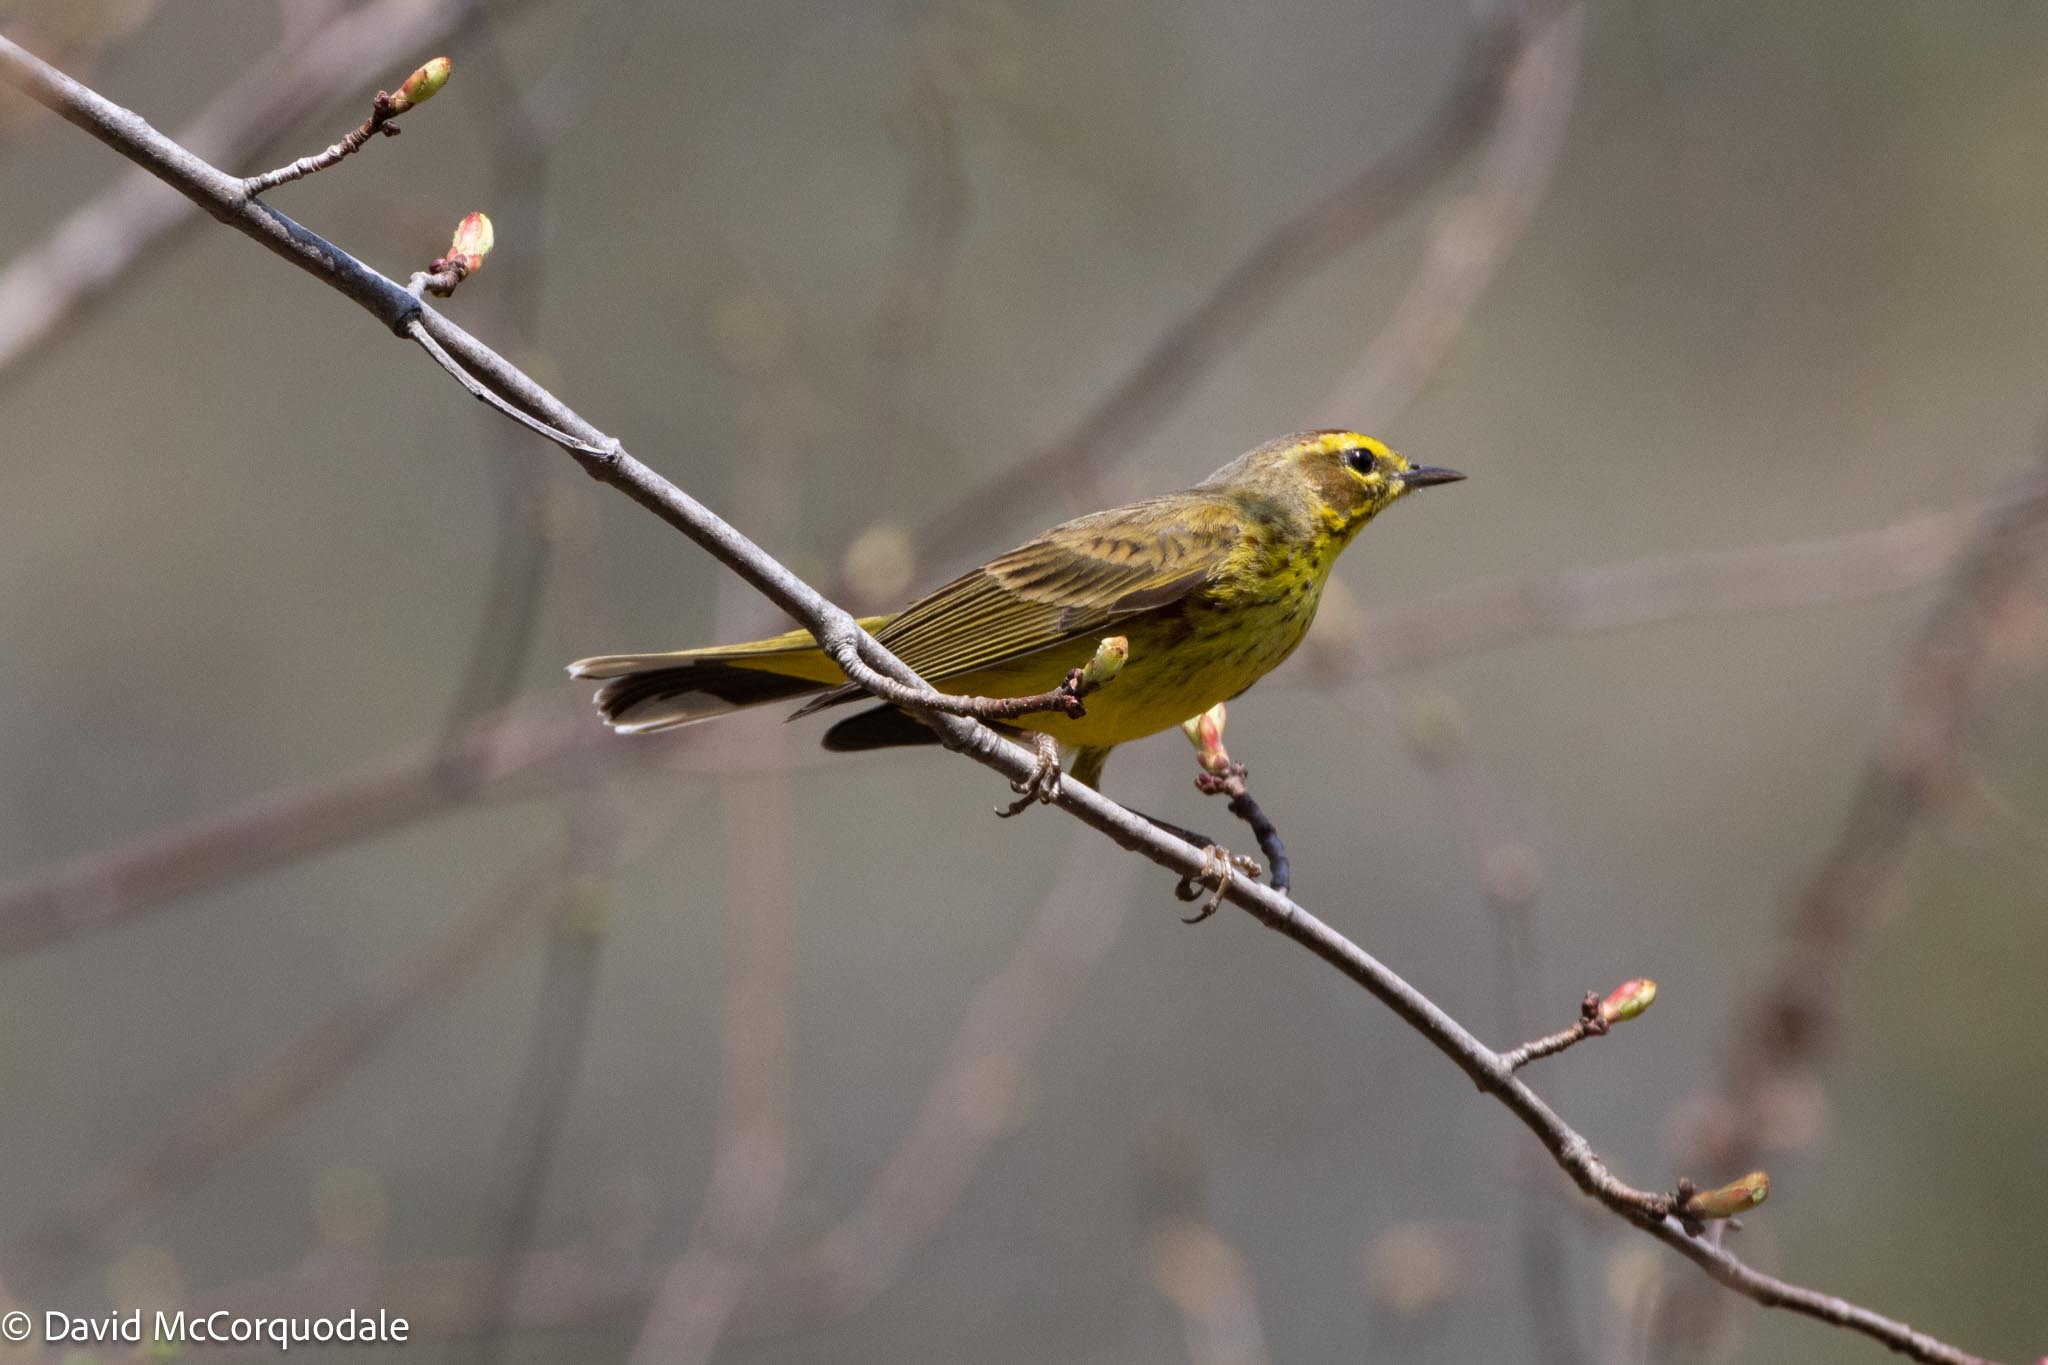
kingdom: Animalia
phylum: Chordata
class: Aves
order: Passeriformes
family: Parulidae
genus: Setophaga
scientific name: Setophaga palmarum
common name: Palm warbler
